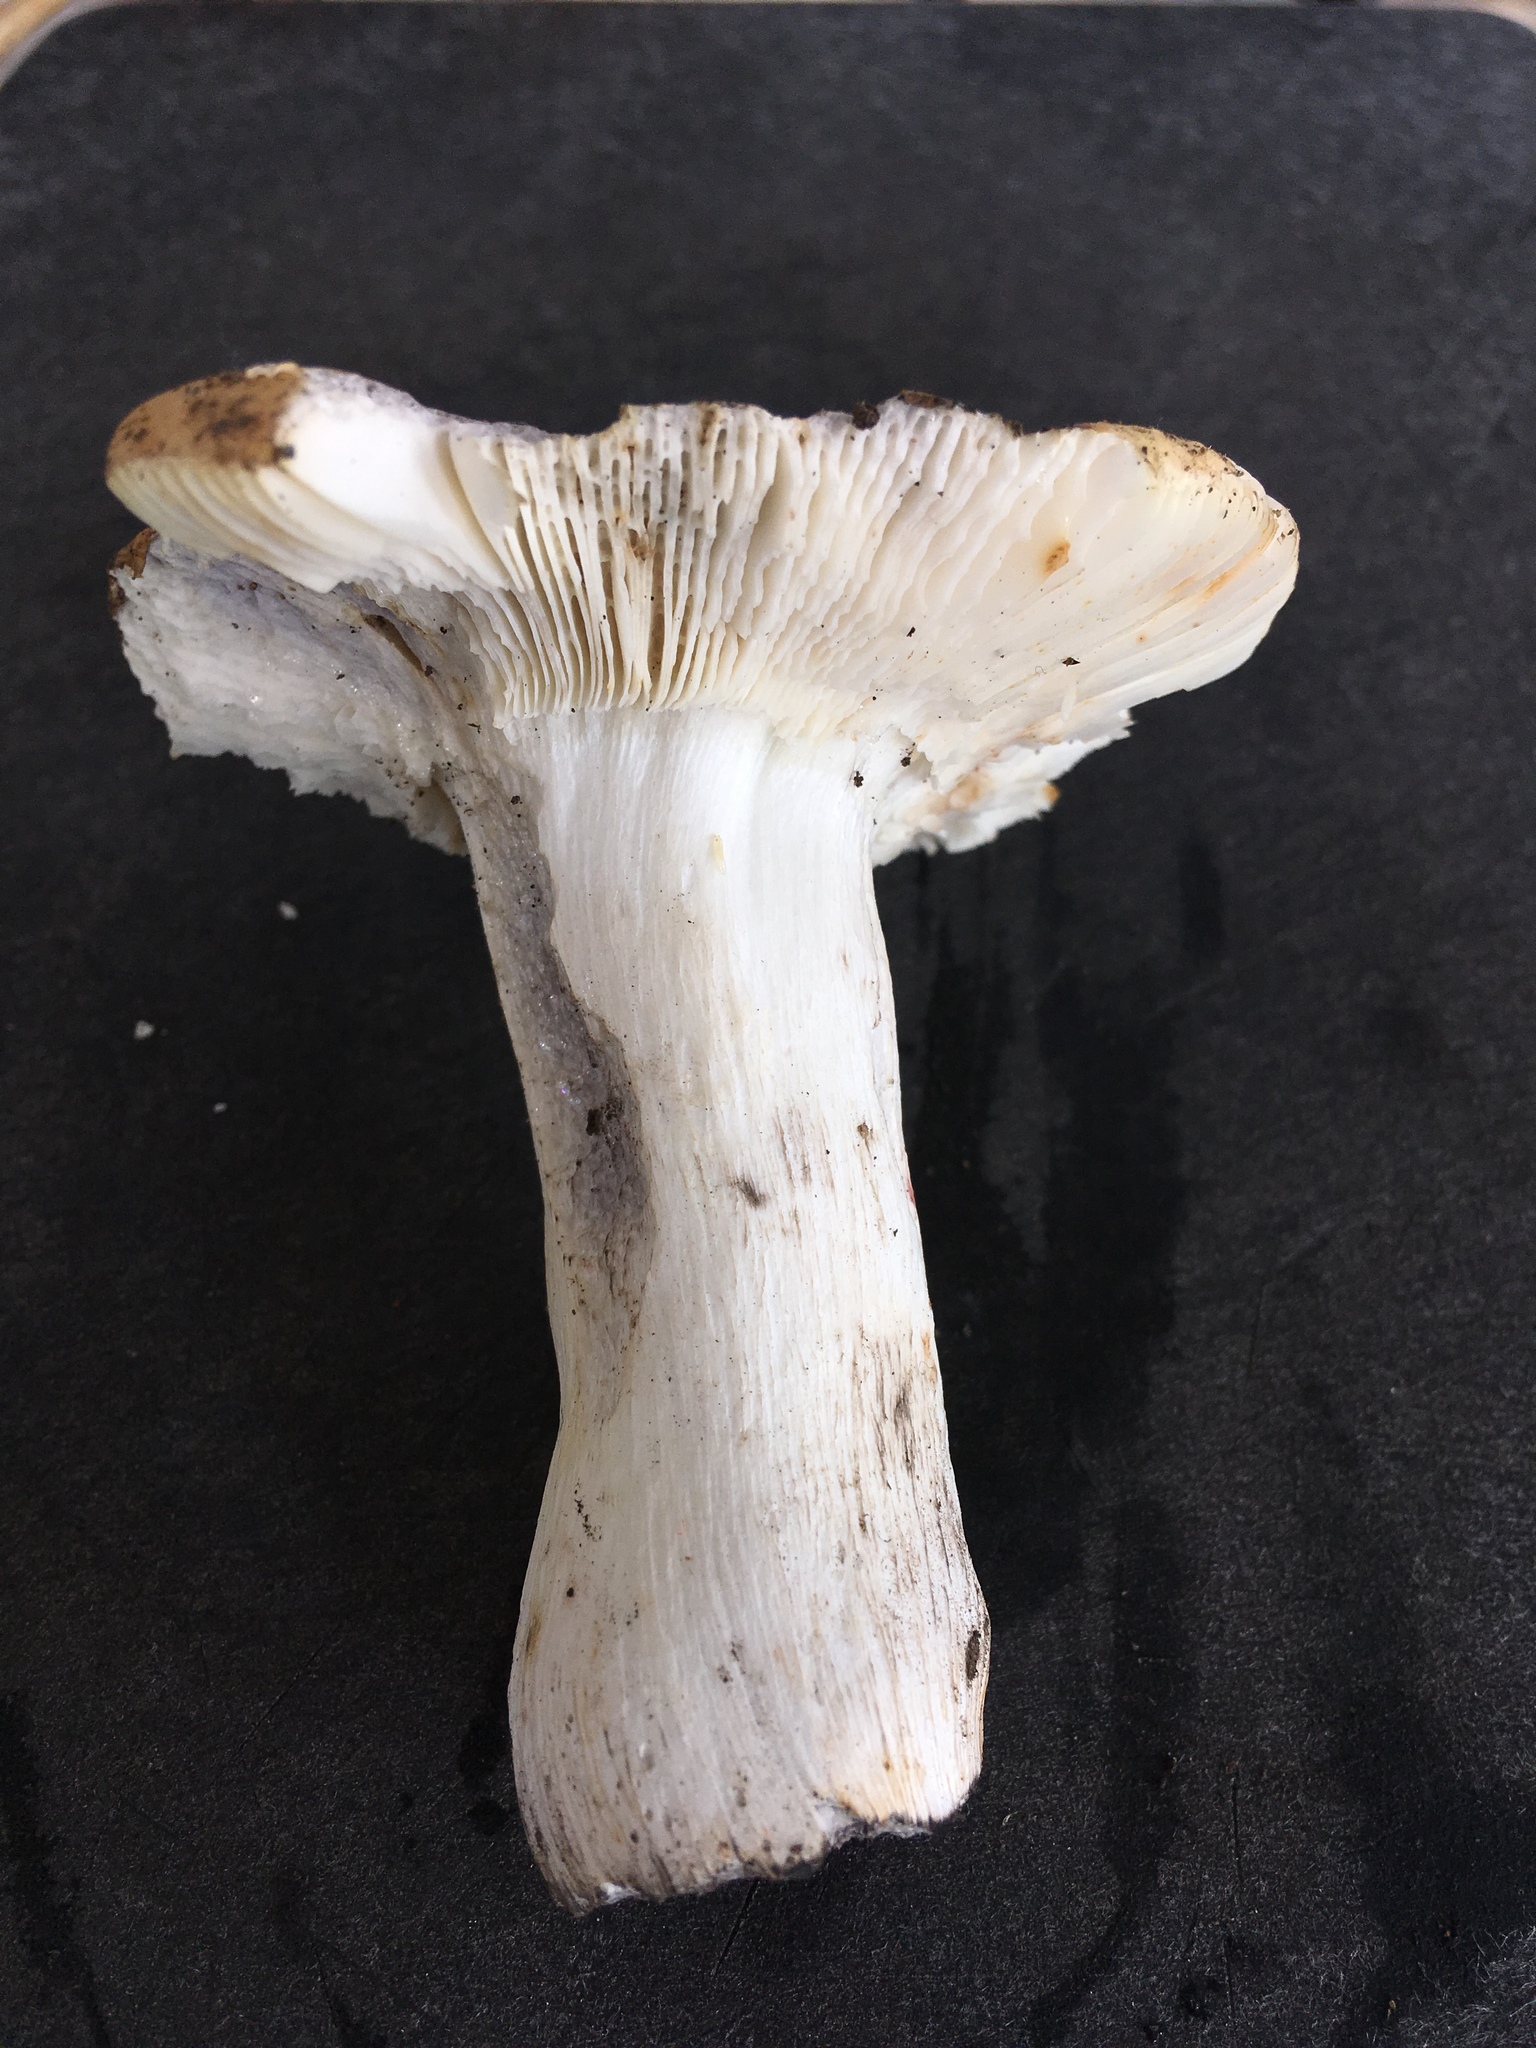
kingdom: Fungi
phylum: Basidiomycota
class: Agaricomycetes
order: Russulales
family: Russulaceae
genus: Russula
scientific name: Russula claroflava
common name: The yellow swamp brittlegill
